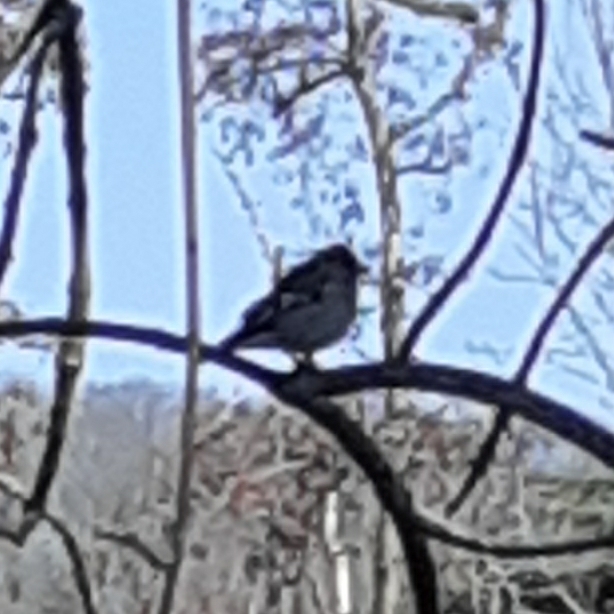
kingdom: Animalia
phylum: Chordata
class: Aves
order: Passeriformes
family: Fringillidae
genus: Fringilla
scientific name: Fringilla coelebs
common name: Common chaffinch
